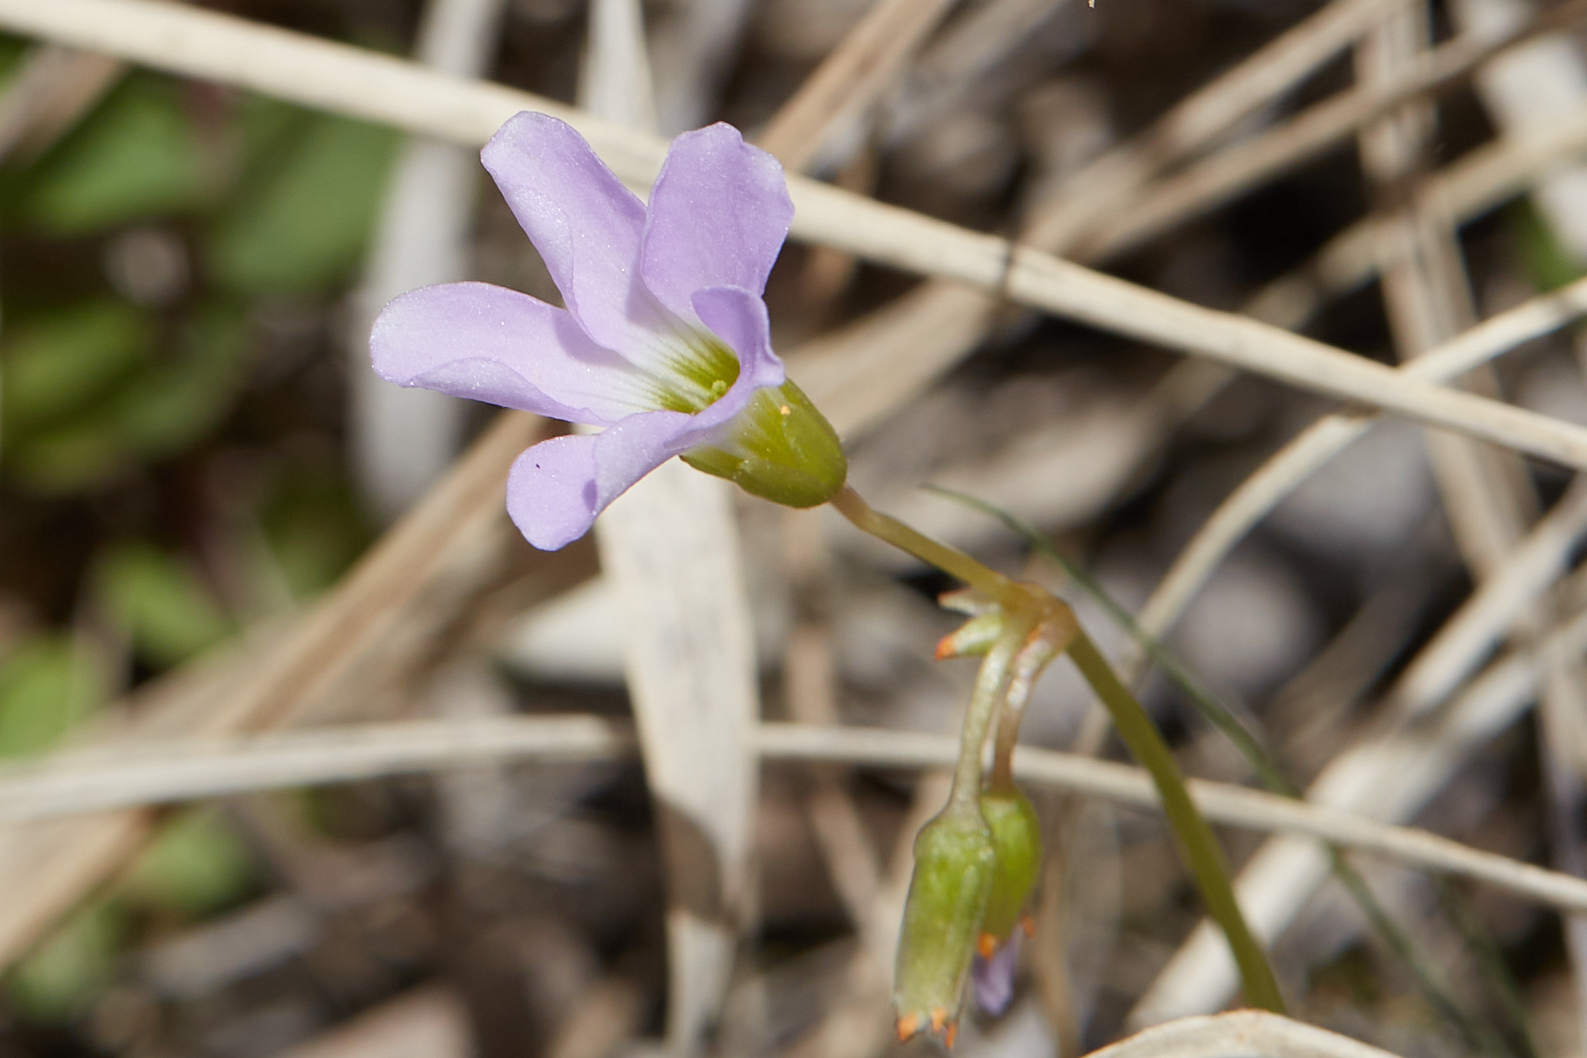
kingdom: Plantae
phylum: Tracheophyta
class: Magnoliopsida
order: Oxalidales
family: Oxalidaceae
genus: Oxalis
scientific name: Oxalis violacea
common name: Violet wood-sorrel
